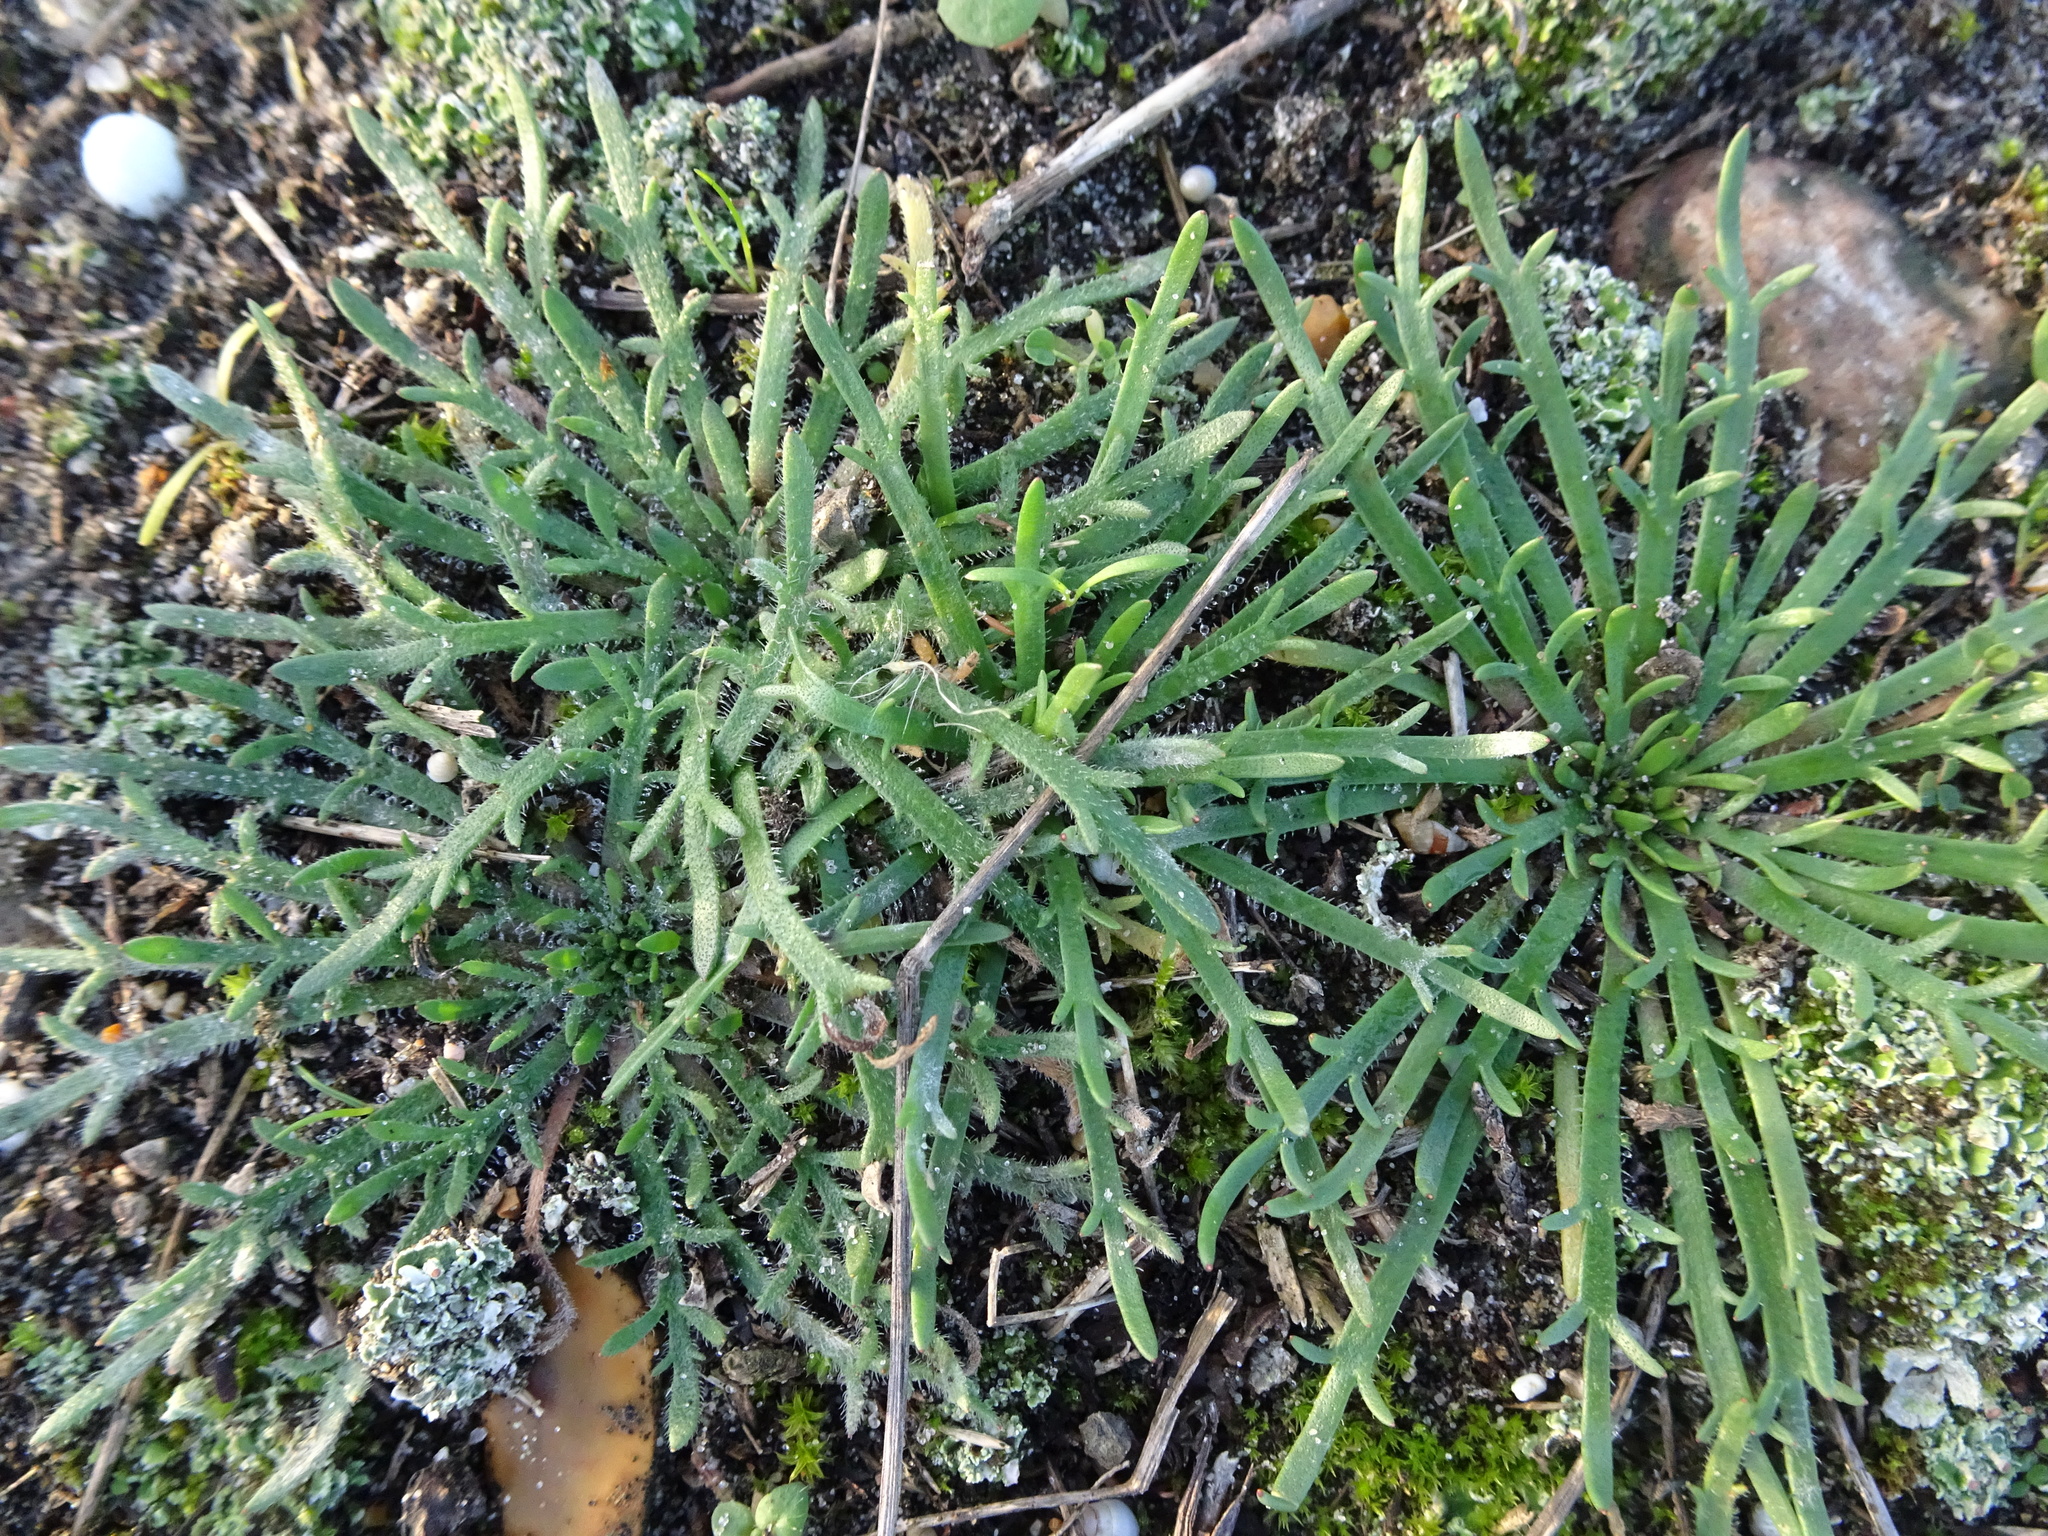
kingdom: Plantae
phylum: Tracheophyta
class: Magnoliopsida
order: Lamiales
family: Plantaginaceae
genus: Plantago
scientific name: Plantago coronopus
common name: Buck's-horn plantain
